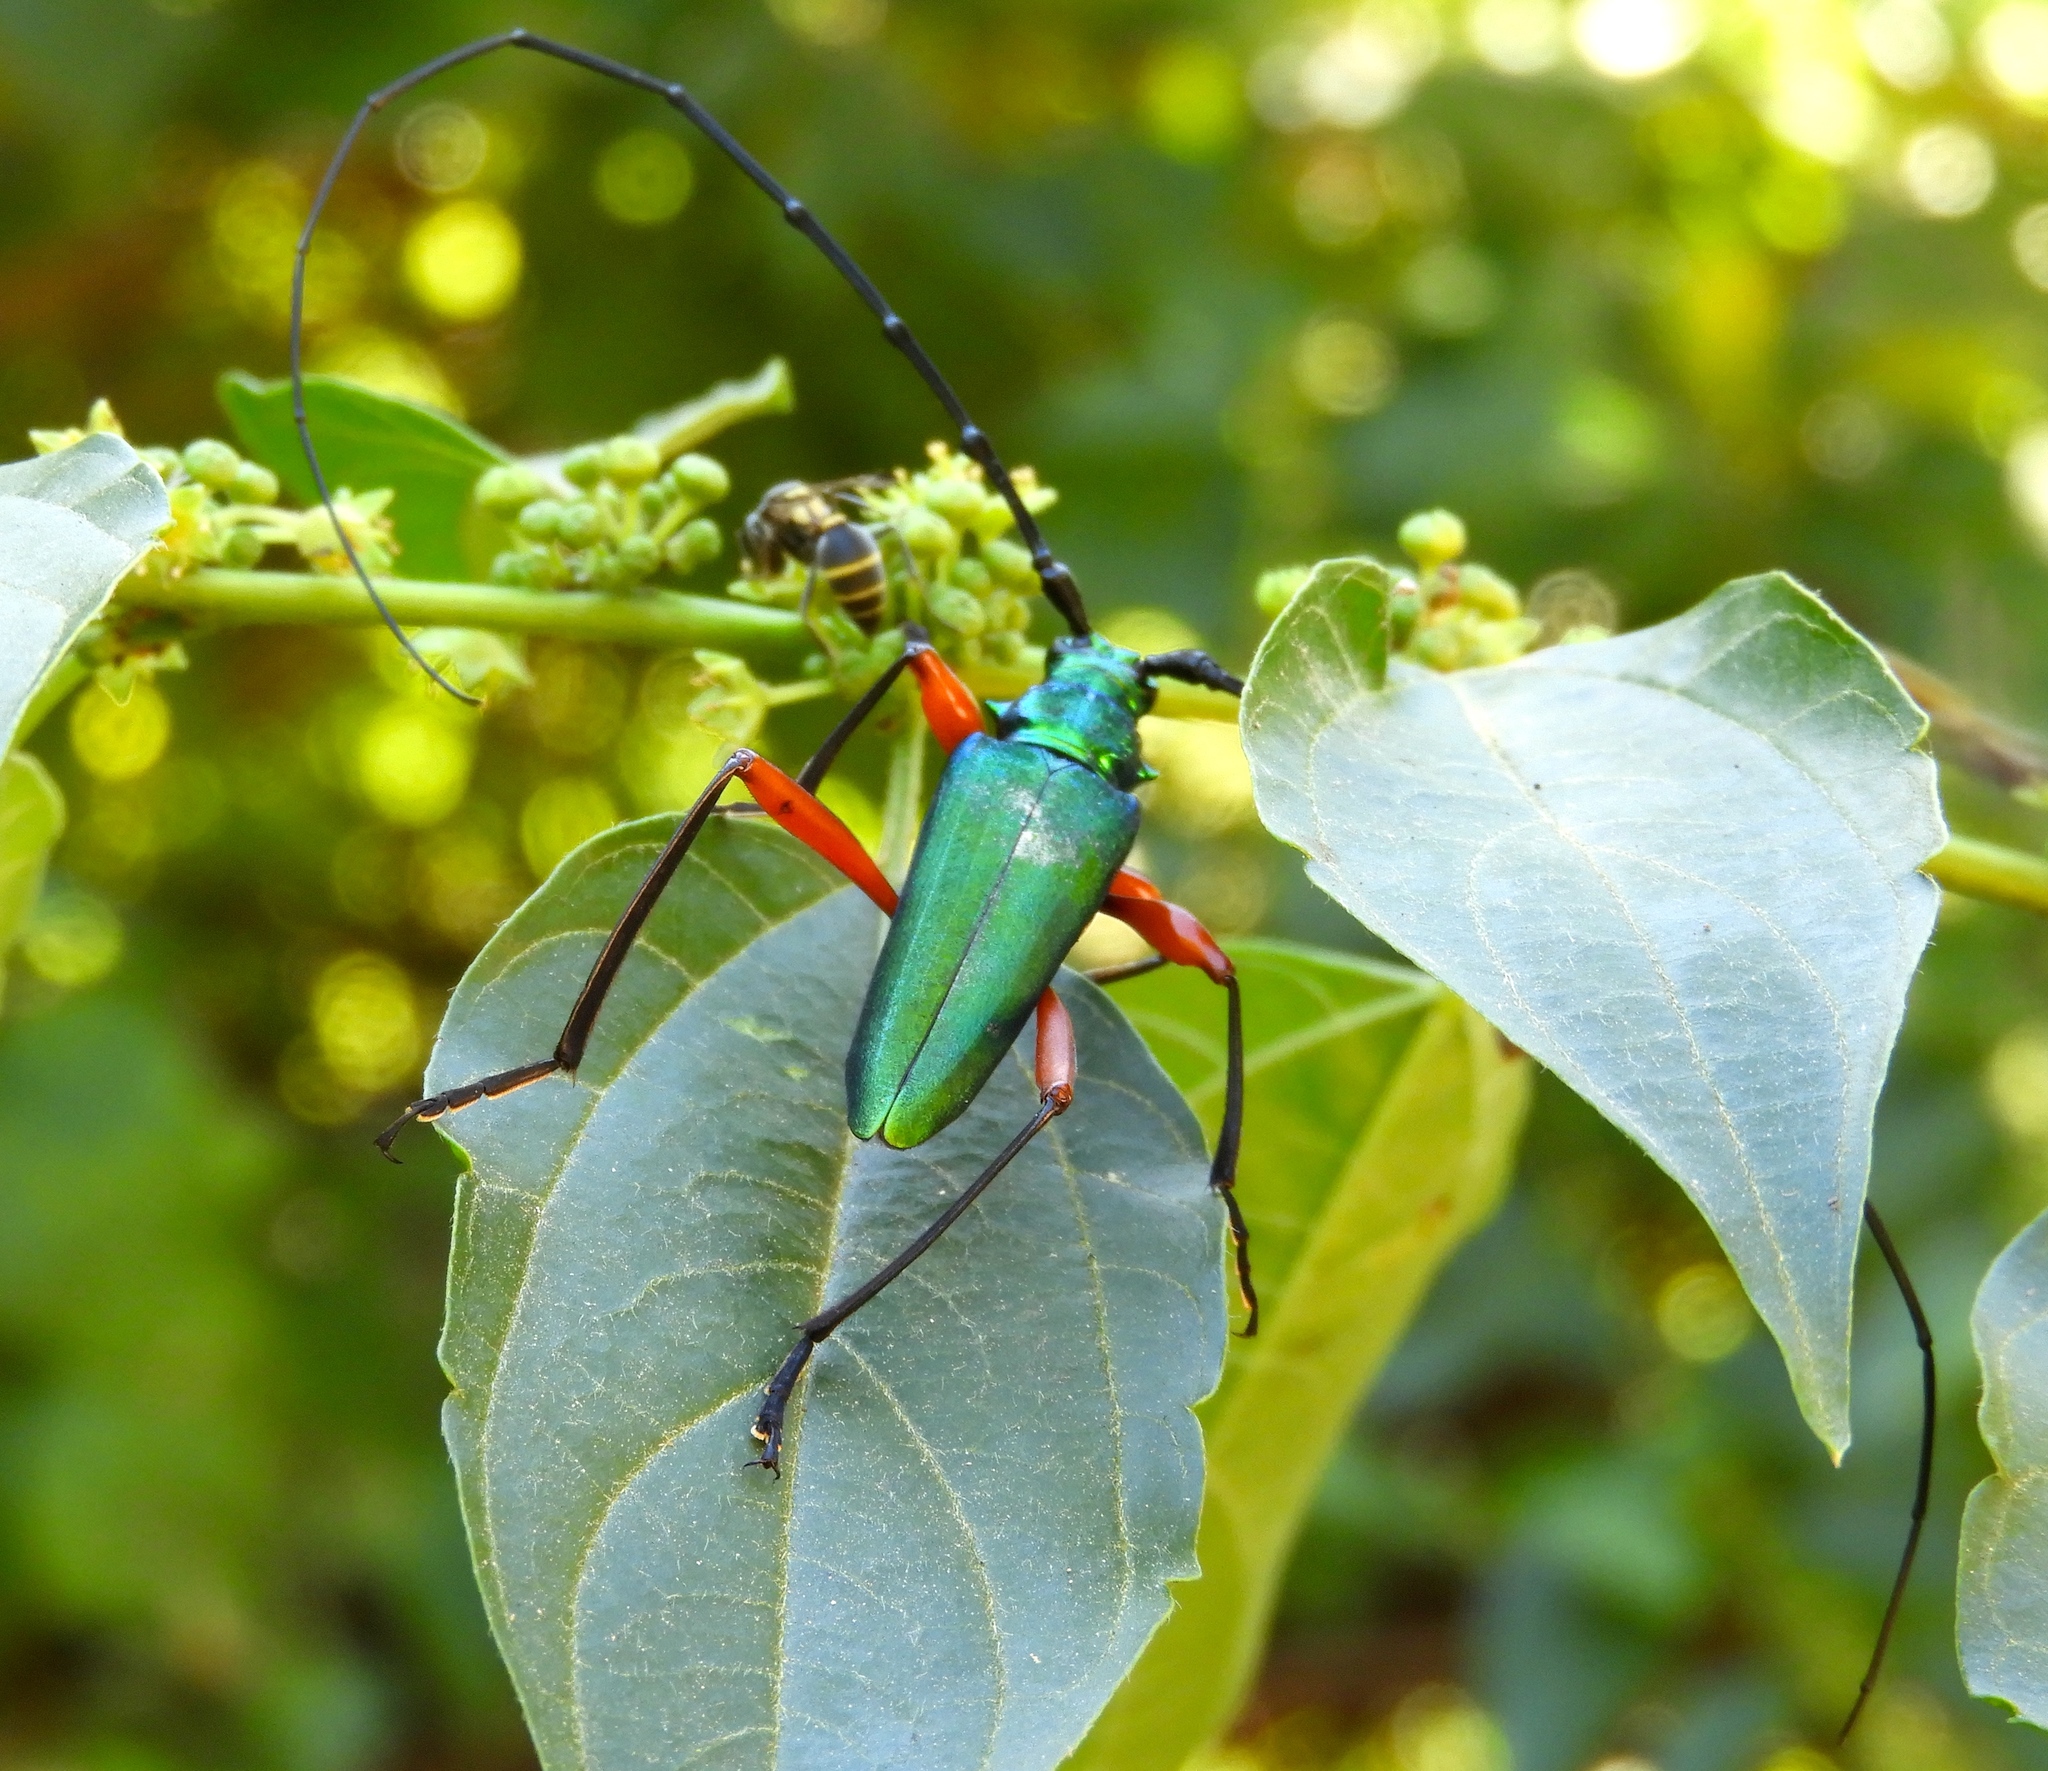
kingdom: Animalia
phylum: Arthropoda
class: Insecta
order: Coleoptera
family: Cerambycidae
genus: Plinthocoelium
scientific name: Plinthocoelium chilensis
